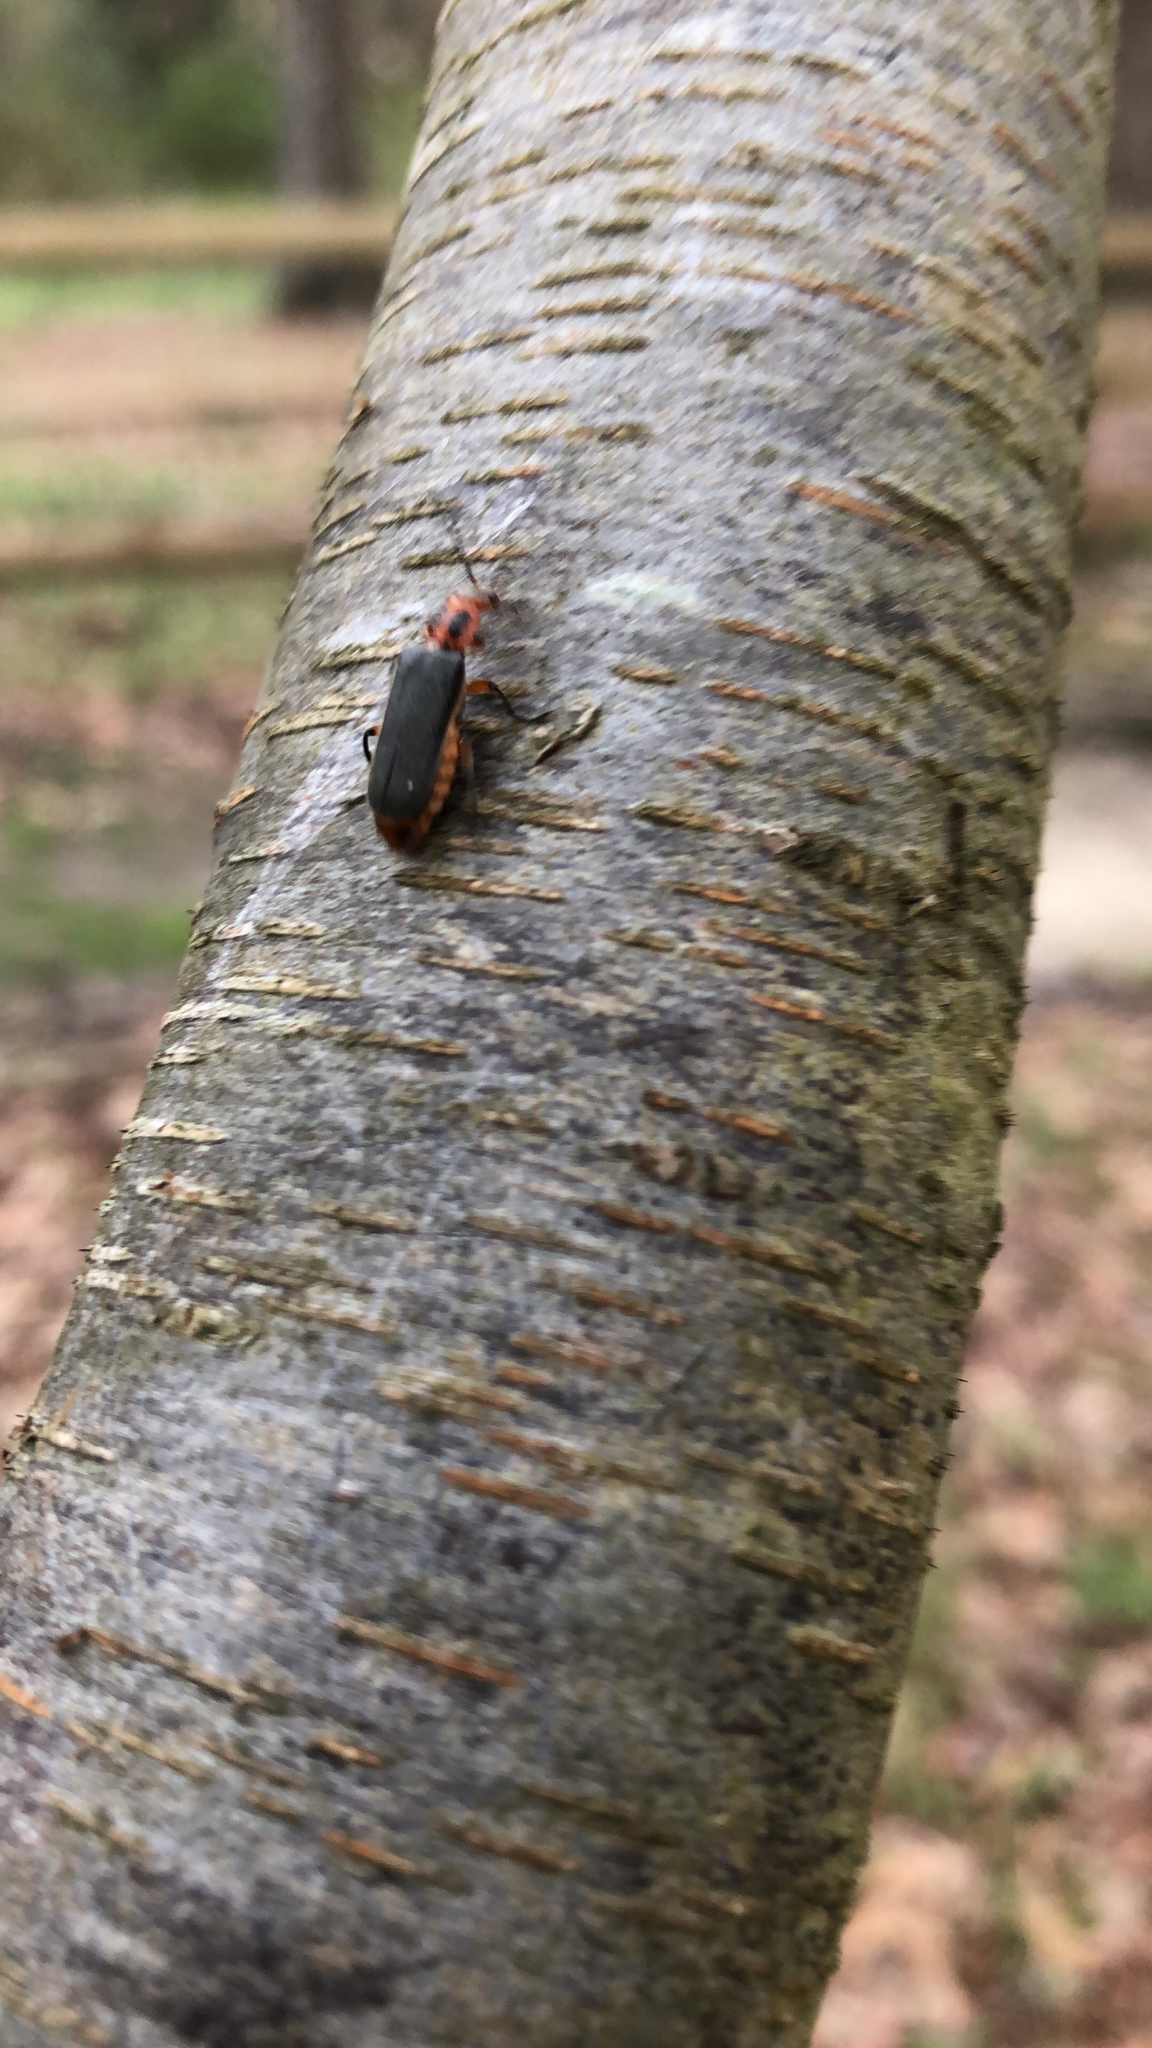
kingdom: Animalia
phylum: Arthropoda
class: Insecta
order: Coleoptera
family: Cantharidae
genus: Atalantycha
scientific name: Atalantycha bilineata
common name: Two-lined leatherwing
